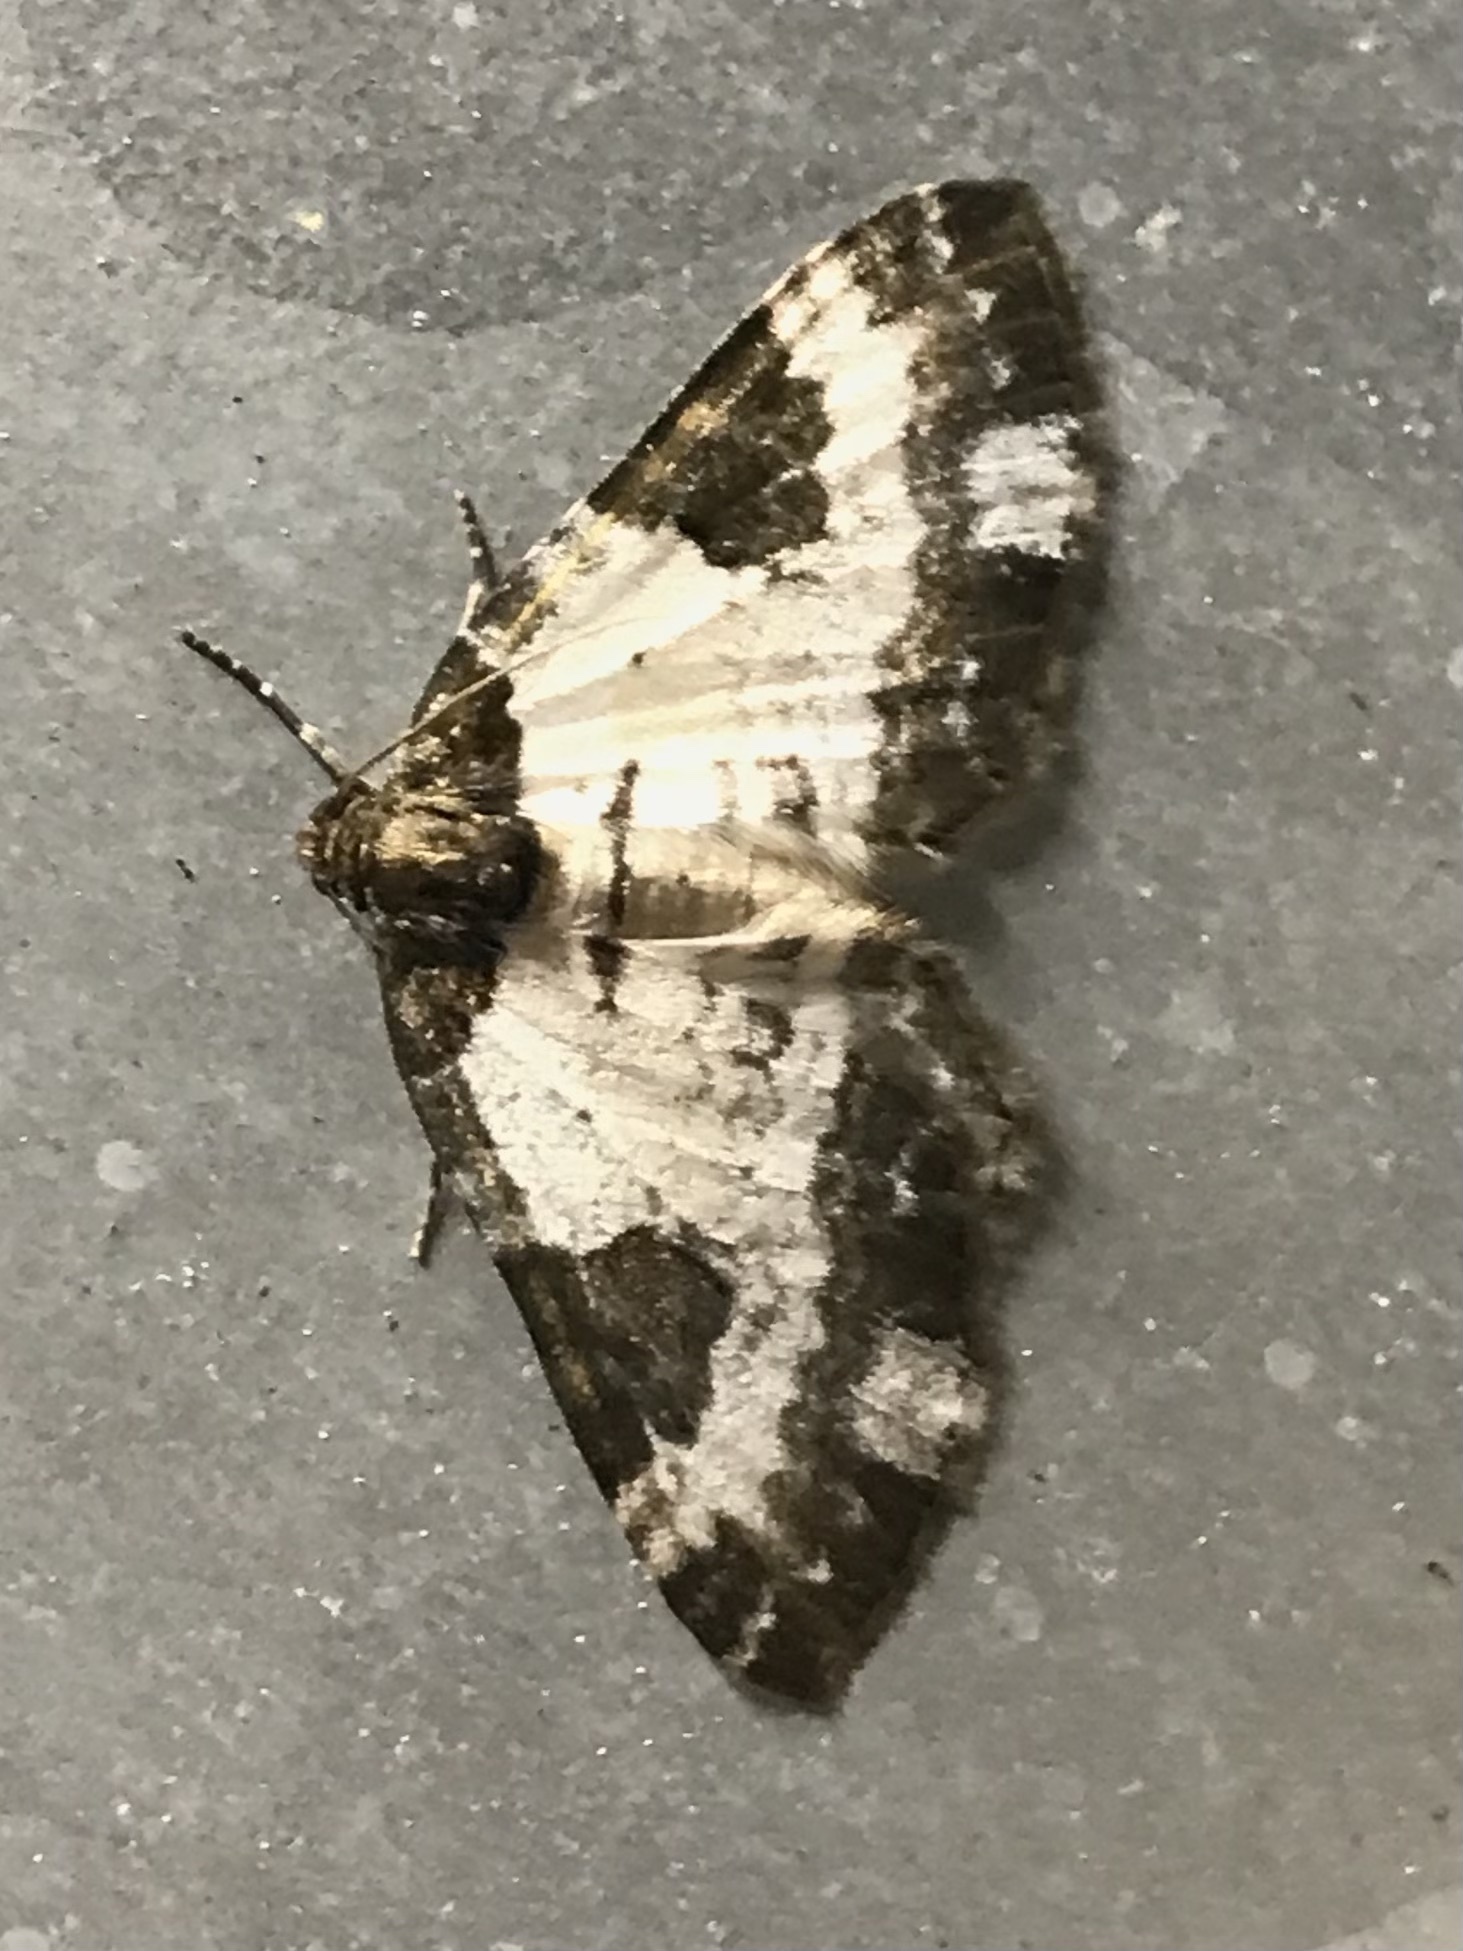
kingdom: Animalia
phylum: Arthropoda
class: Insecta
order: Lepidoptera
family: Geometridae
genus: Melanthia
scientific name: Melanthia procellata
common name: Pretty chalk carpet
